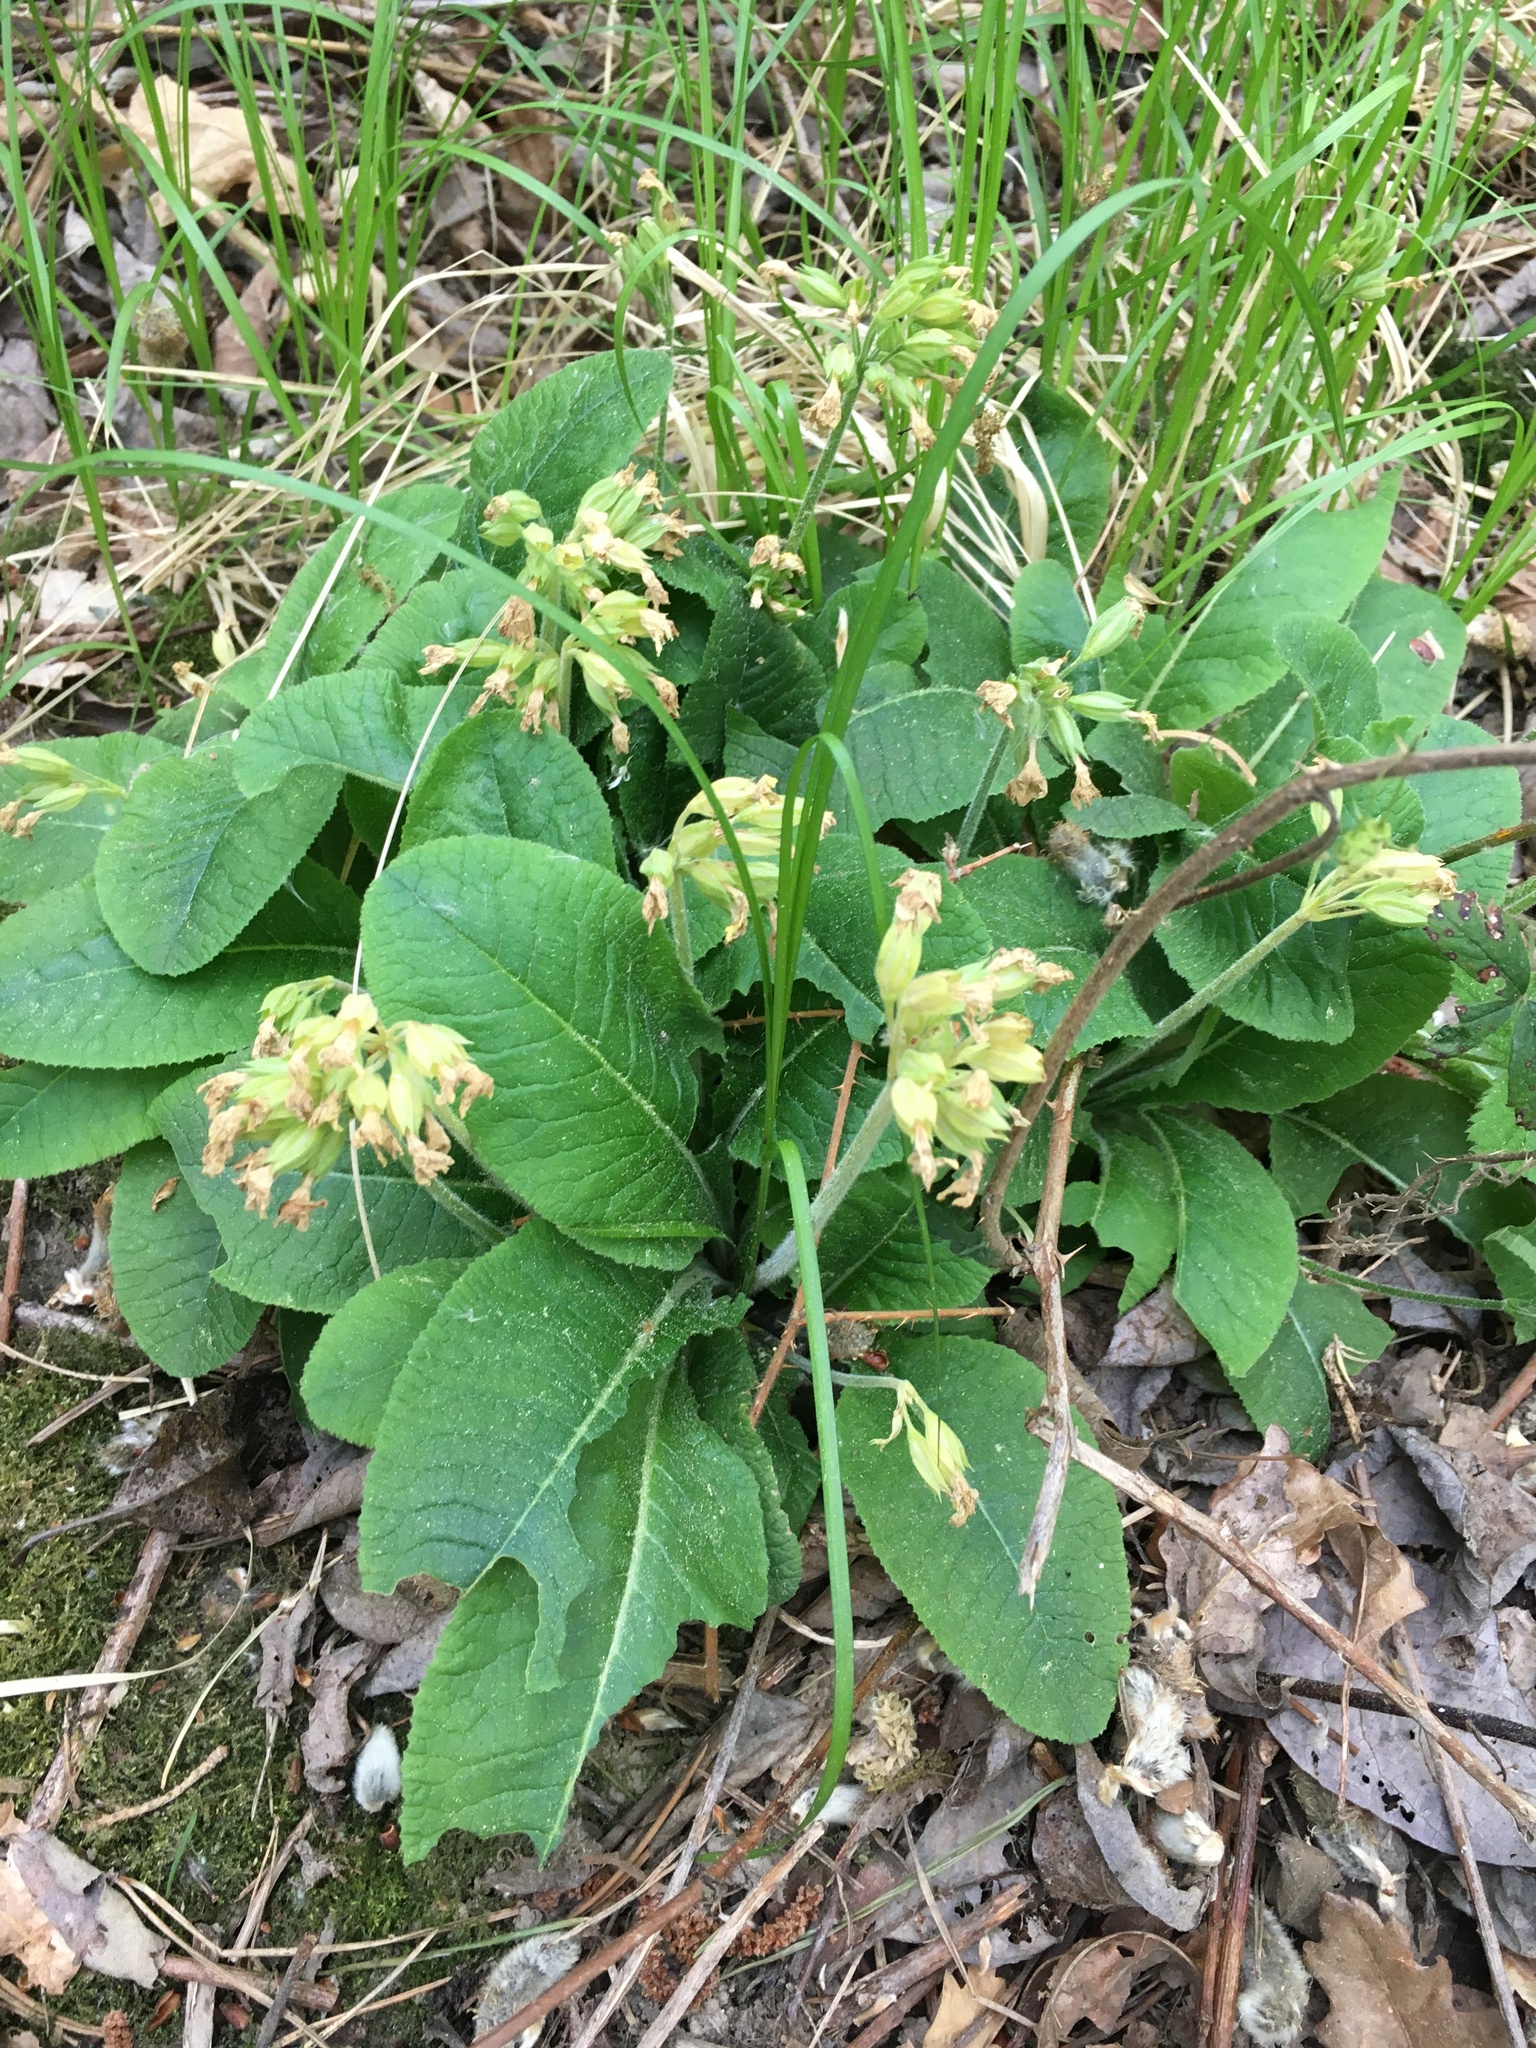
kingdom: Plantae
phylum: Tracheophyta
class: Magnoliopsida
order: Ericales
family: Primulaceae
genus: Primula
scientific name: Primula veris
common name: Cowslip
